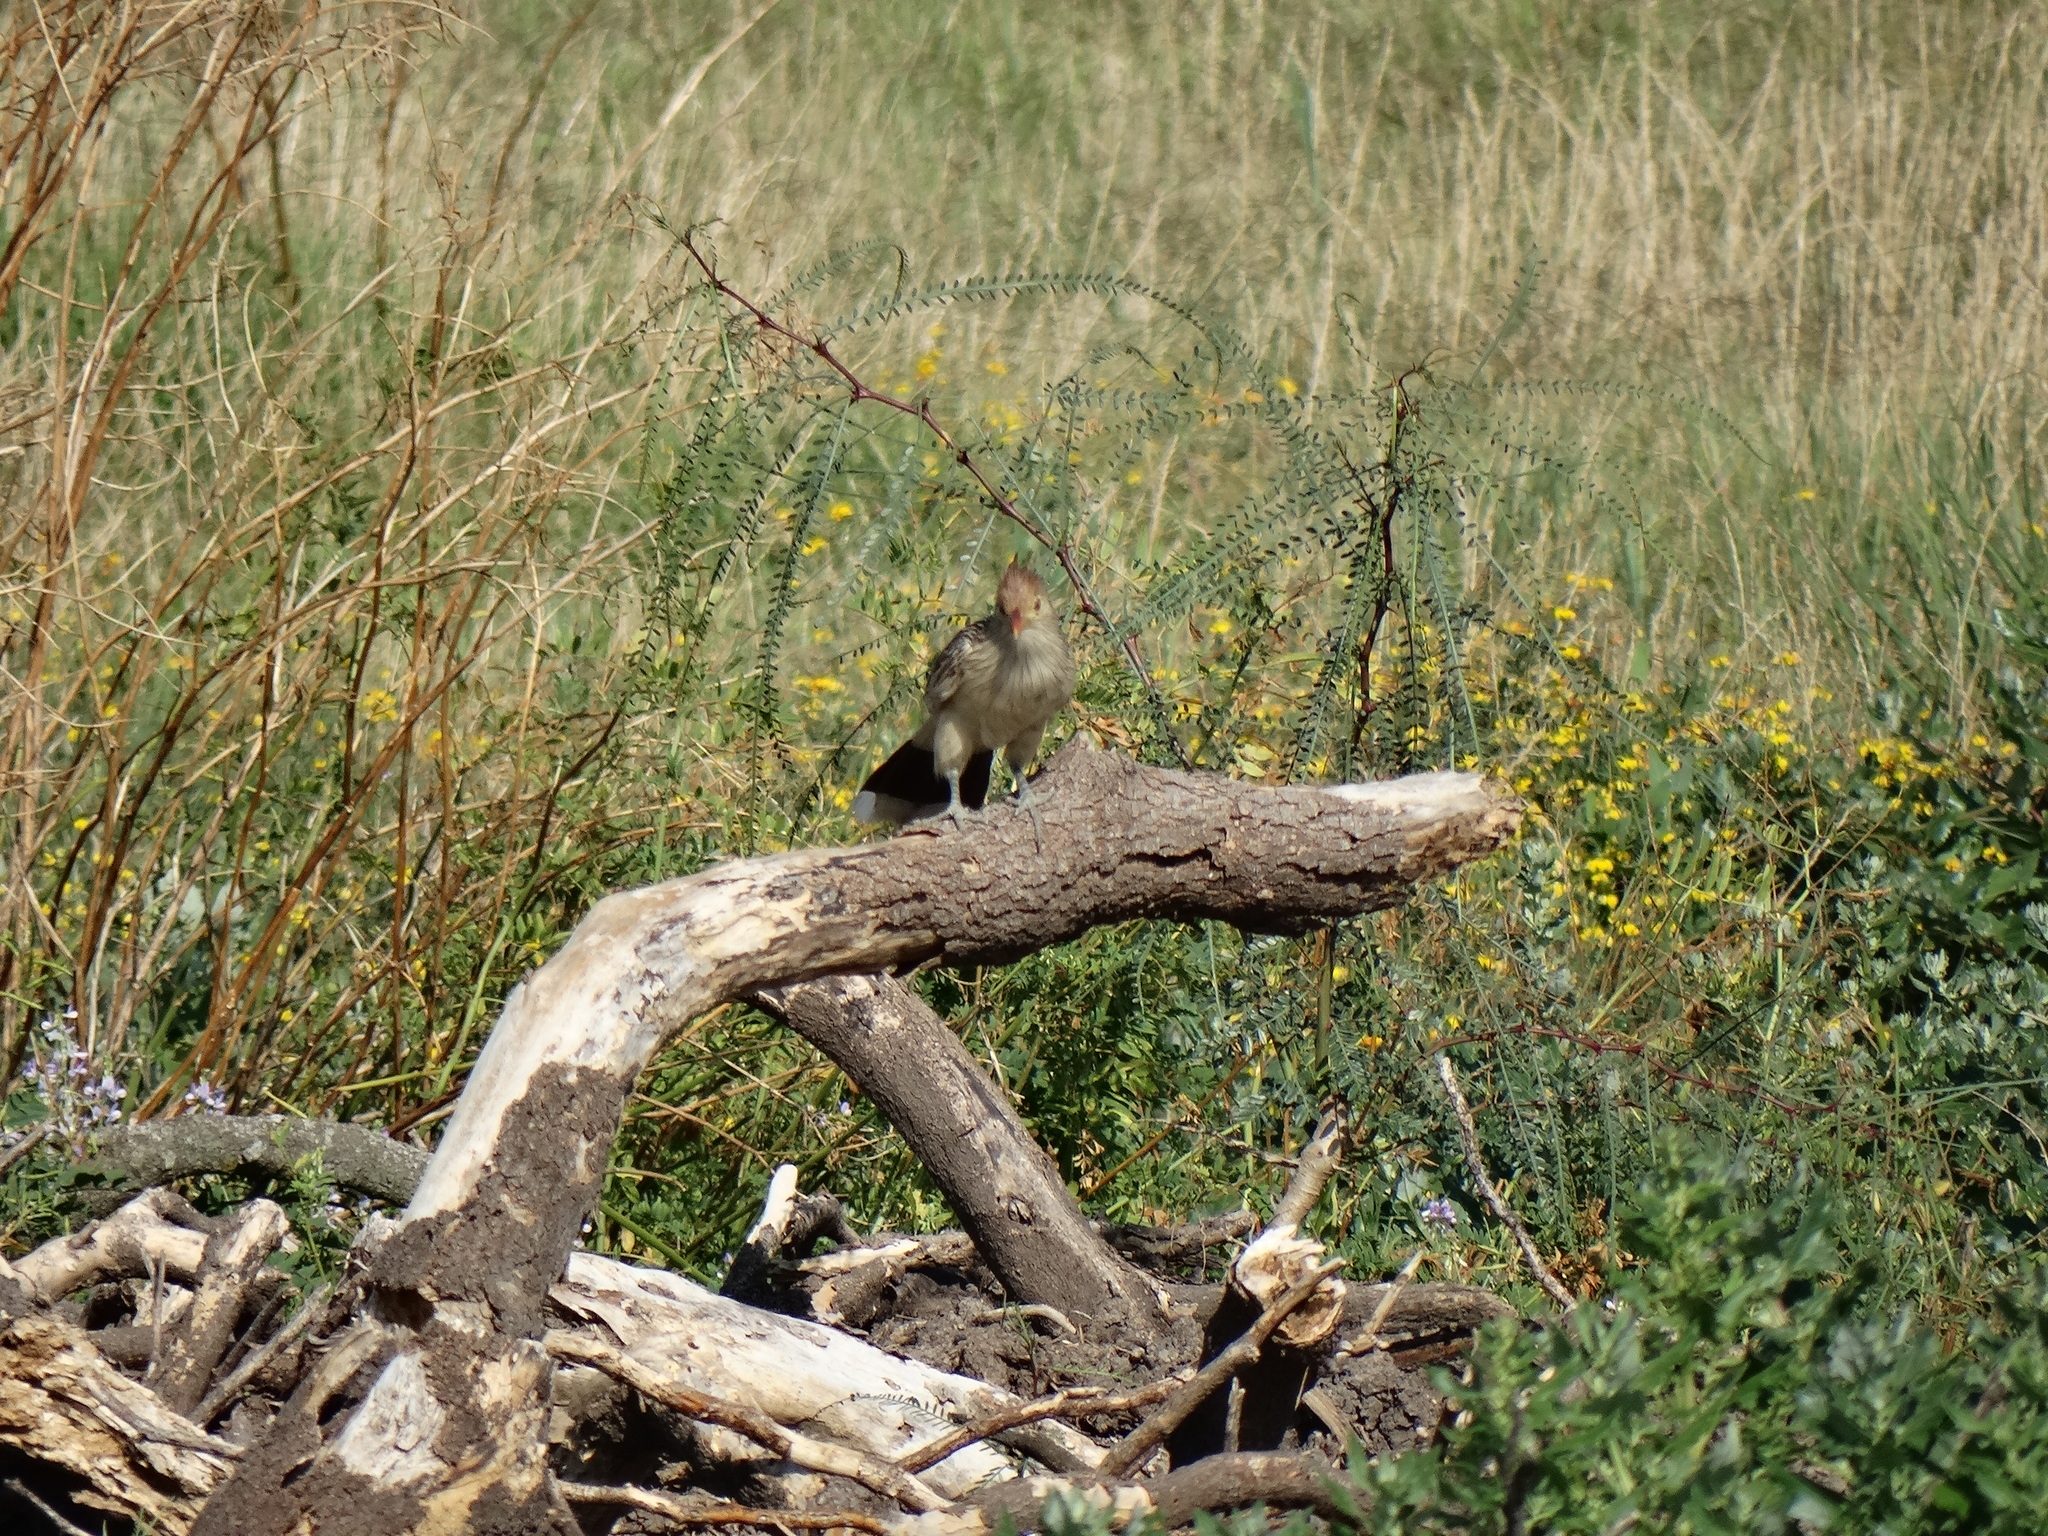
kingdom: Animalia
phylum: Chordata
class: Aves
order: Cuculiformes
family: Cuculidae
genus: Guira
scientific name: Guira guira
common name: Guira cuckoo
